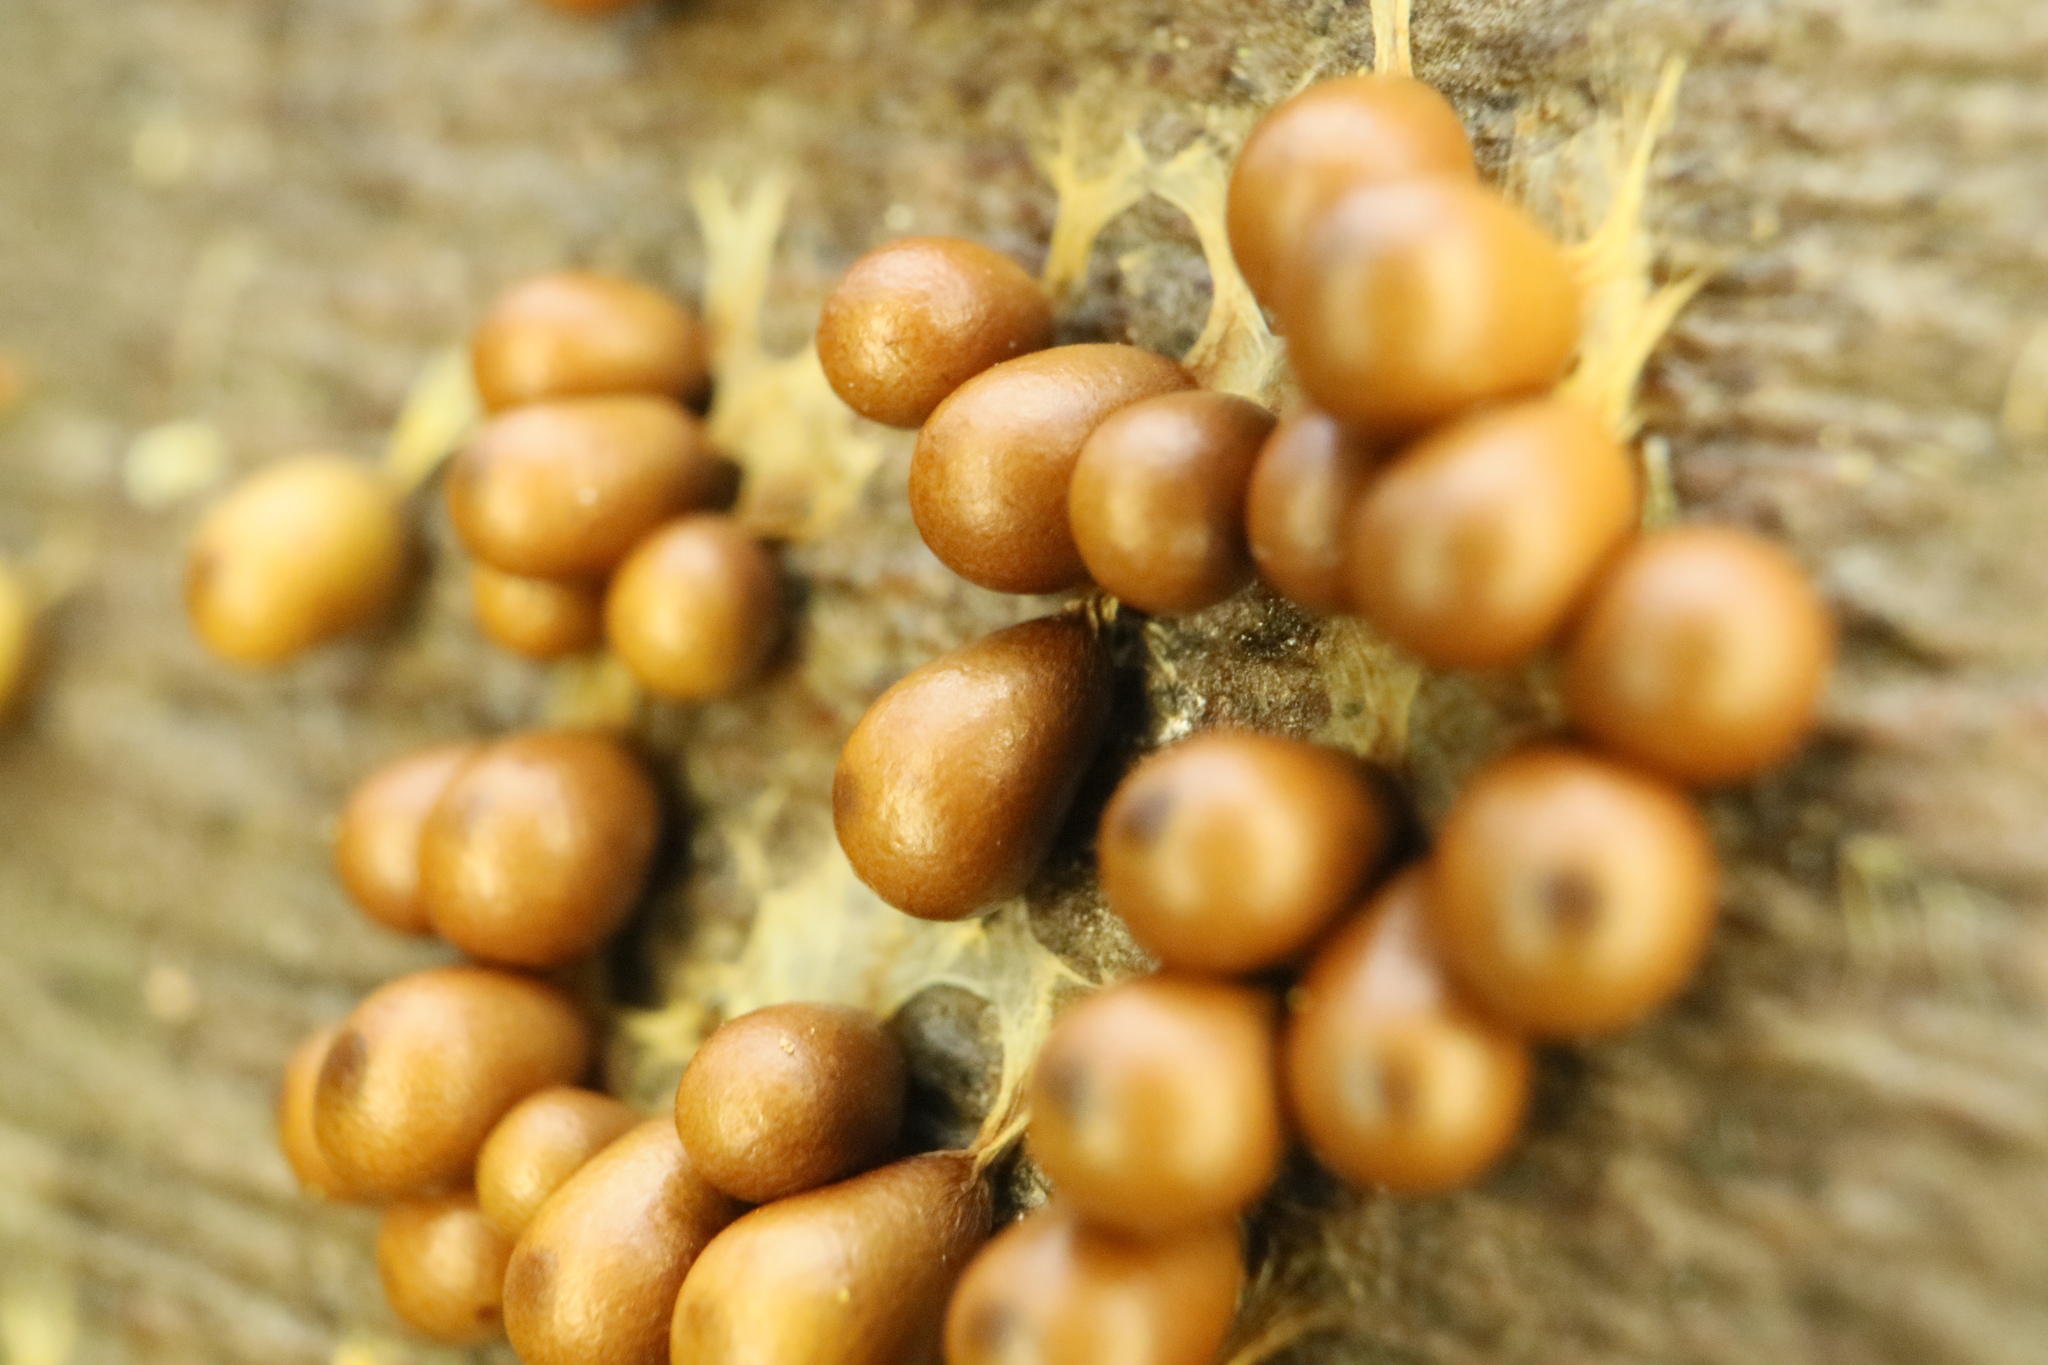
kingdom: Protozoa
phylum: Mycetozoa
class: Myxomycetes
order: Physarales
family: Physaraceae
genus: Leocarpus
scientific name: Leocarpus fragilis
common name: Insect-egg slime
